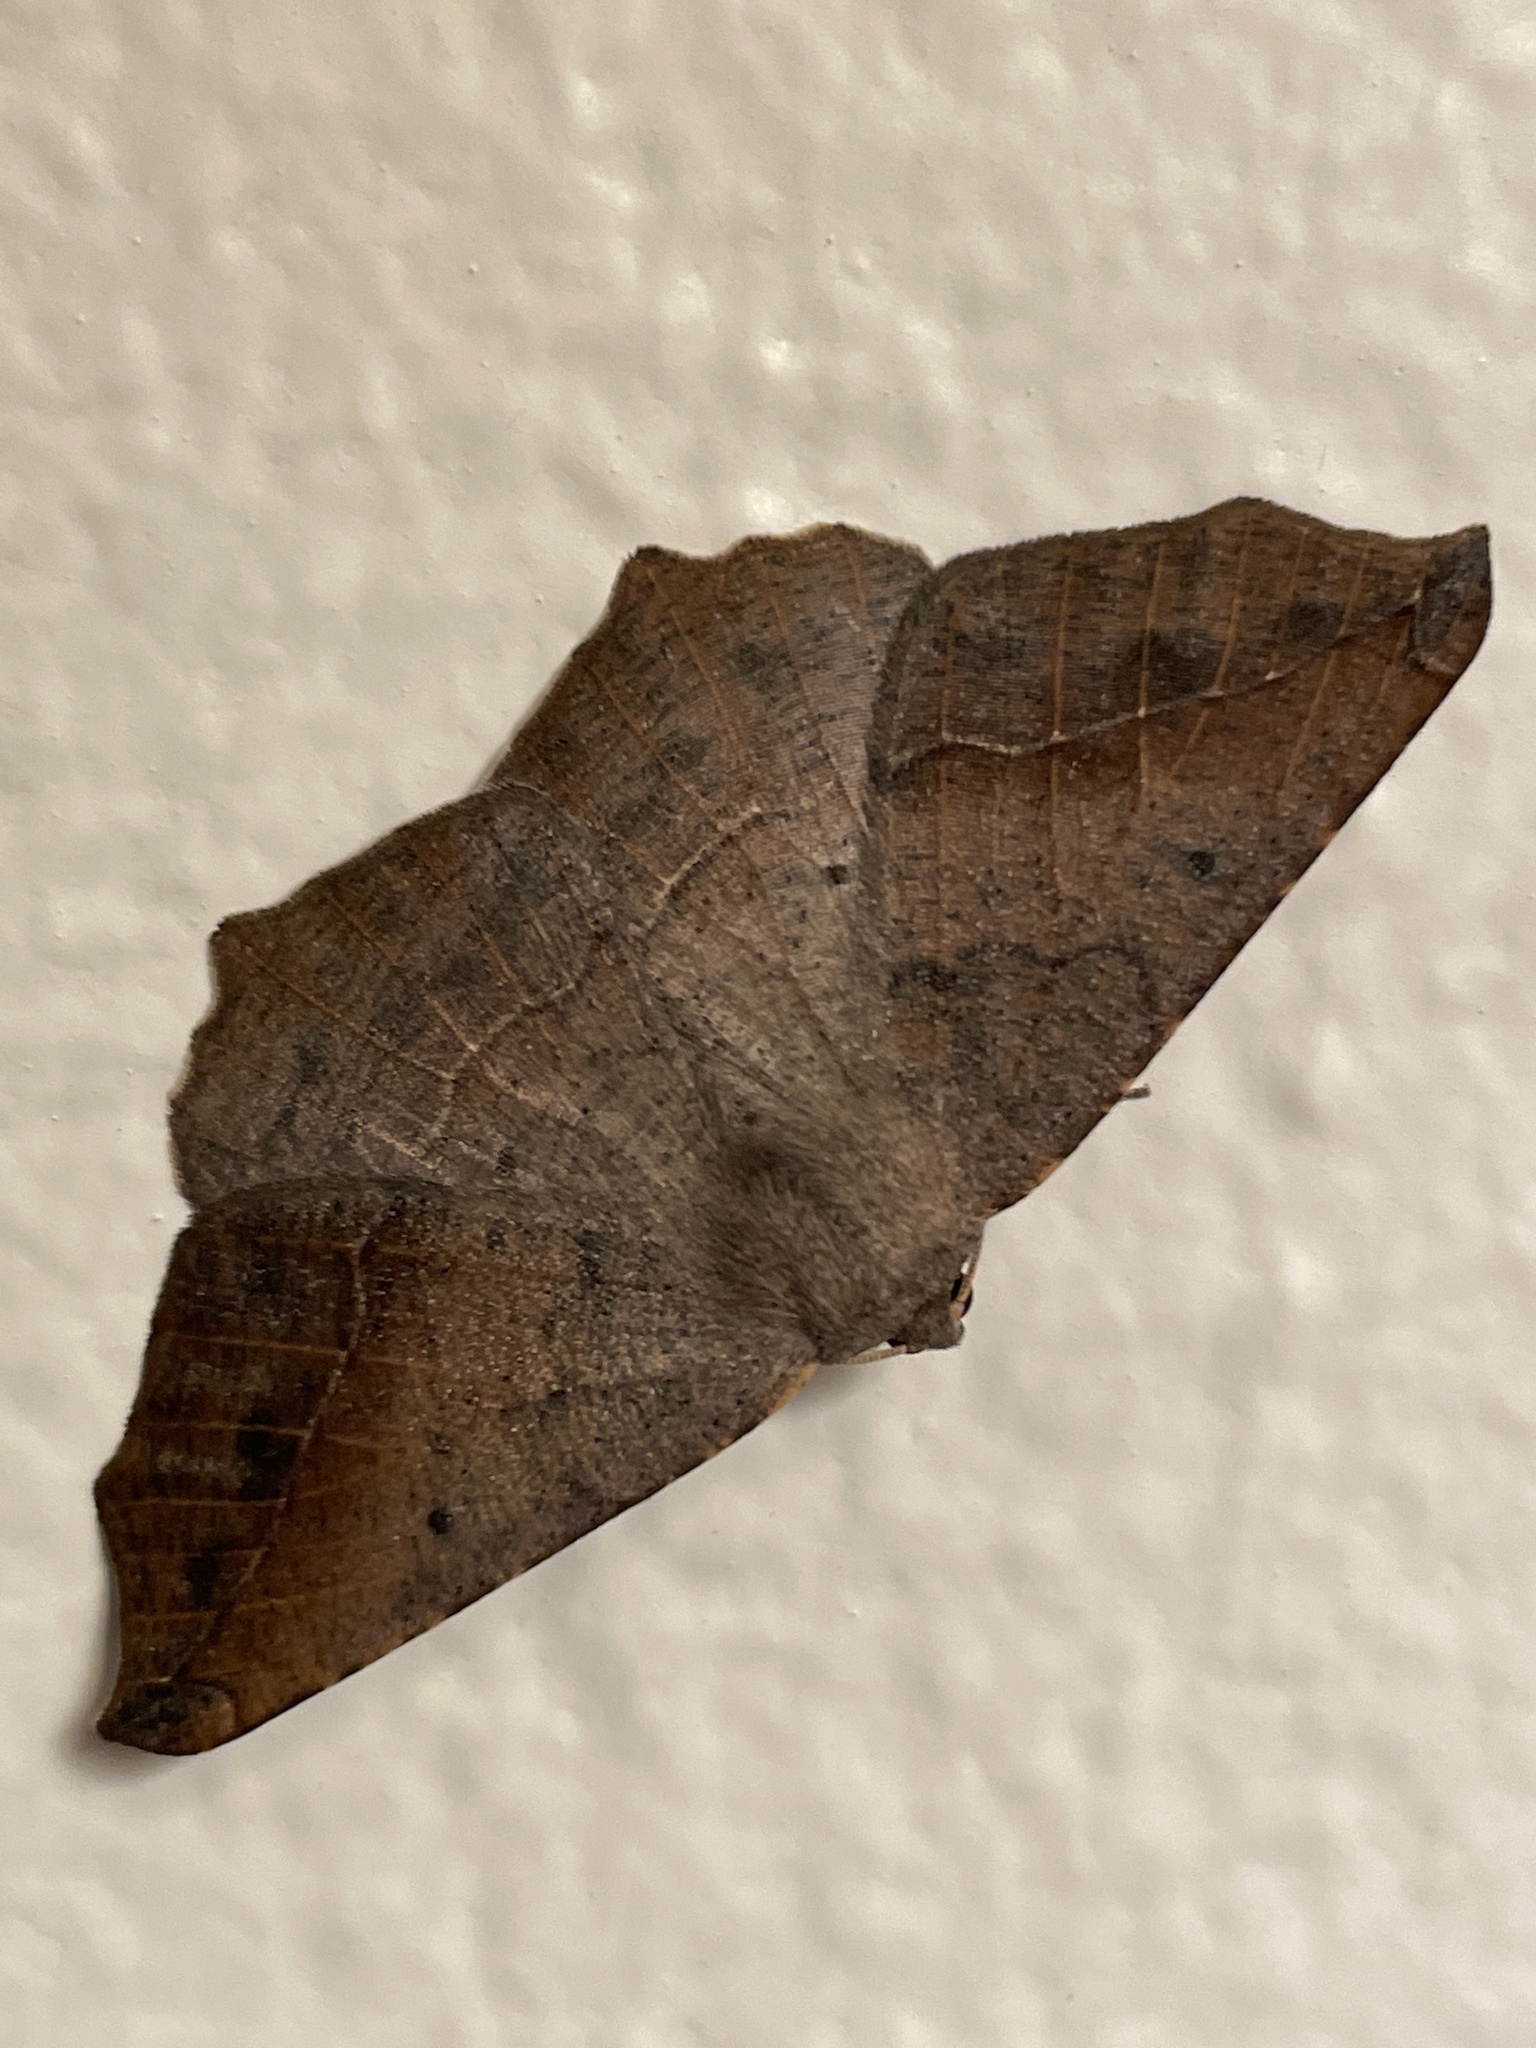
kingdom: Animalia
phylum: Arthropoda
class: Insecta
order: Lepidoptera
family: Geometridae
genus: Prochoerodes
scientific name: Prochoerodes forficaria
